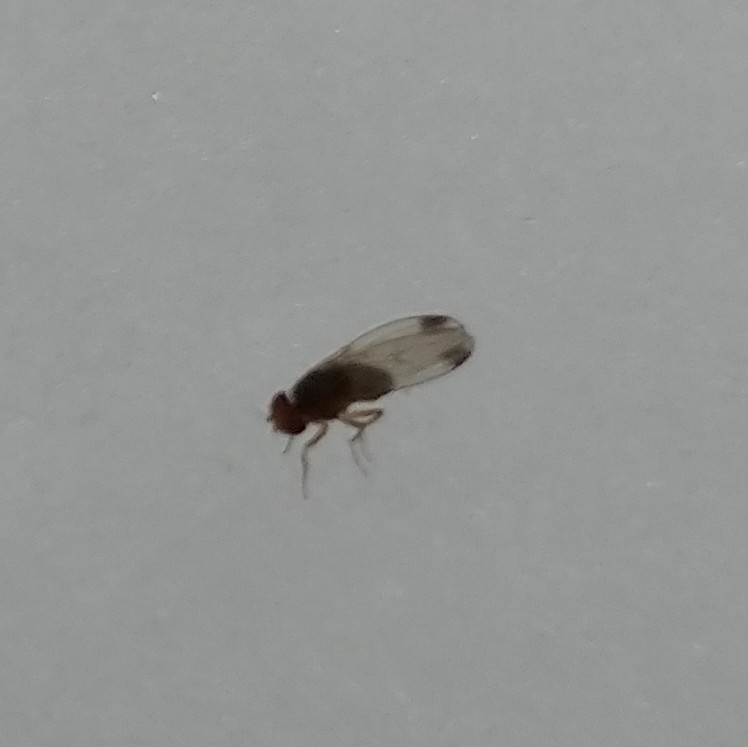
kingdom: Animalia
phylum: Arthropoda
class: Insecta
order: Diptera
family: Drosophilidae
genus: Drosophila
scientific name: Drosophila suzukii
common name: Spotted-wing drosophila
